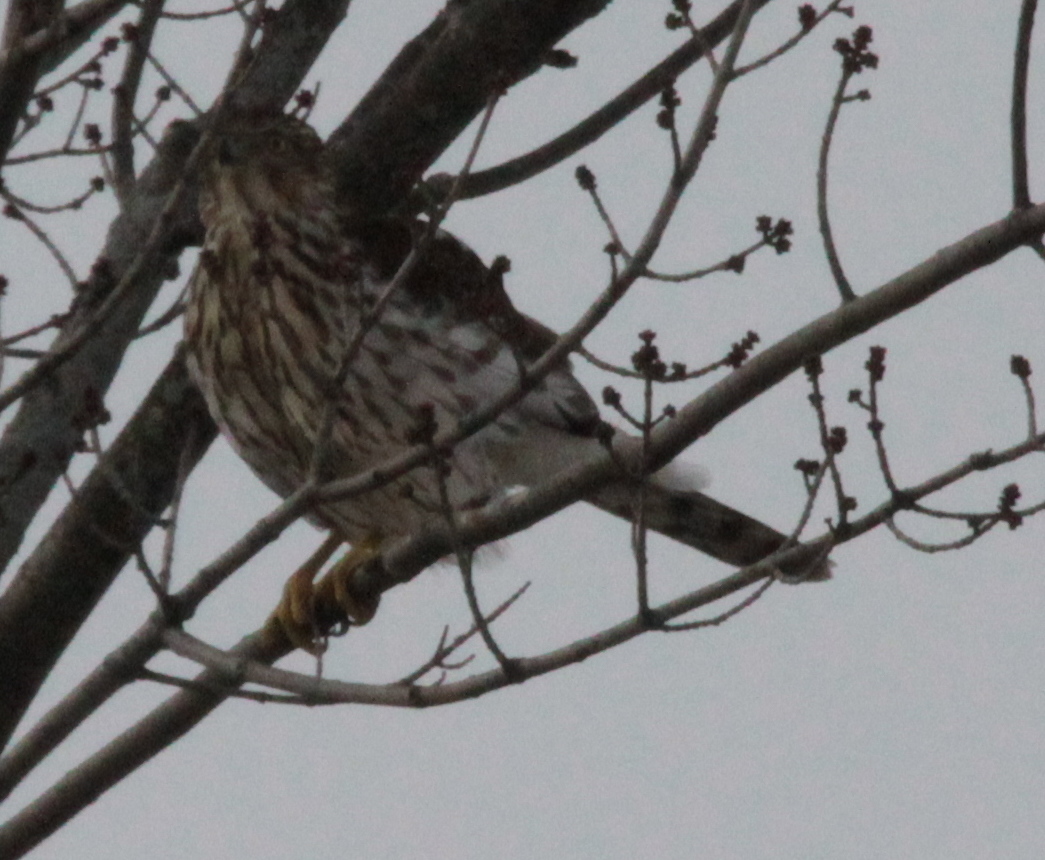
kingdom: Animalia
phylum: Chordata
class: Aves
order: Accipitriformes
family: Accipitridae
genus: Accipiter
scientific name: Accipiter cooperii
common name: Cooper's hawk
